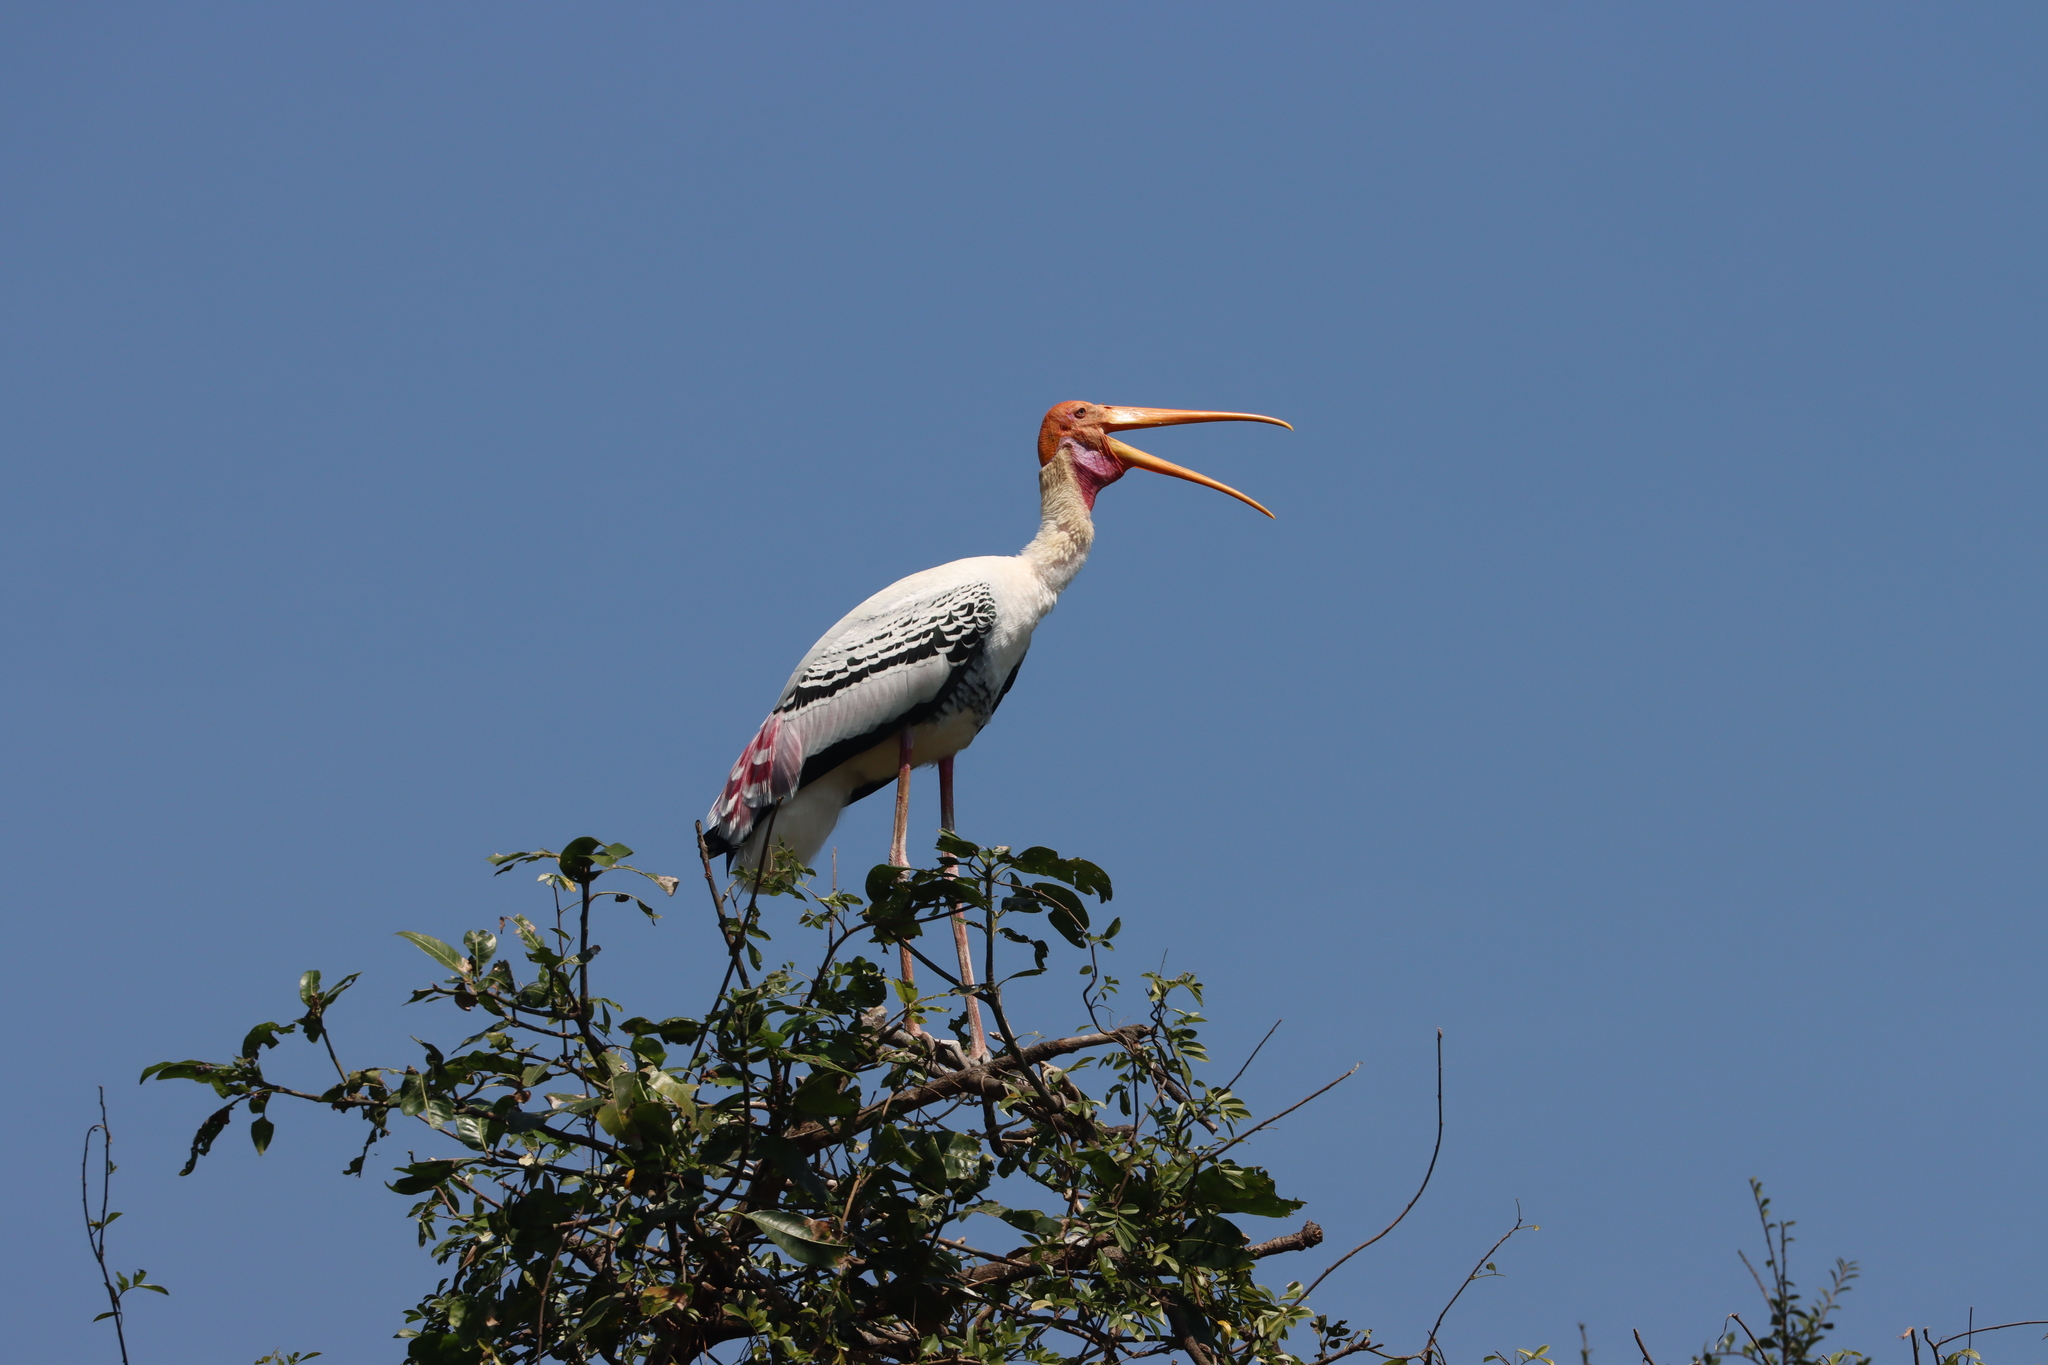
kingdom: Animalia
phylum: Chordata
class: Aves
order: Ciconiiformes
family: Ciconiidae
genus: Mycteria
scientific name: Mycteria leucocephala
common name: Painted stork
